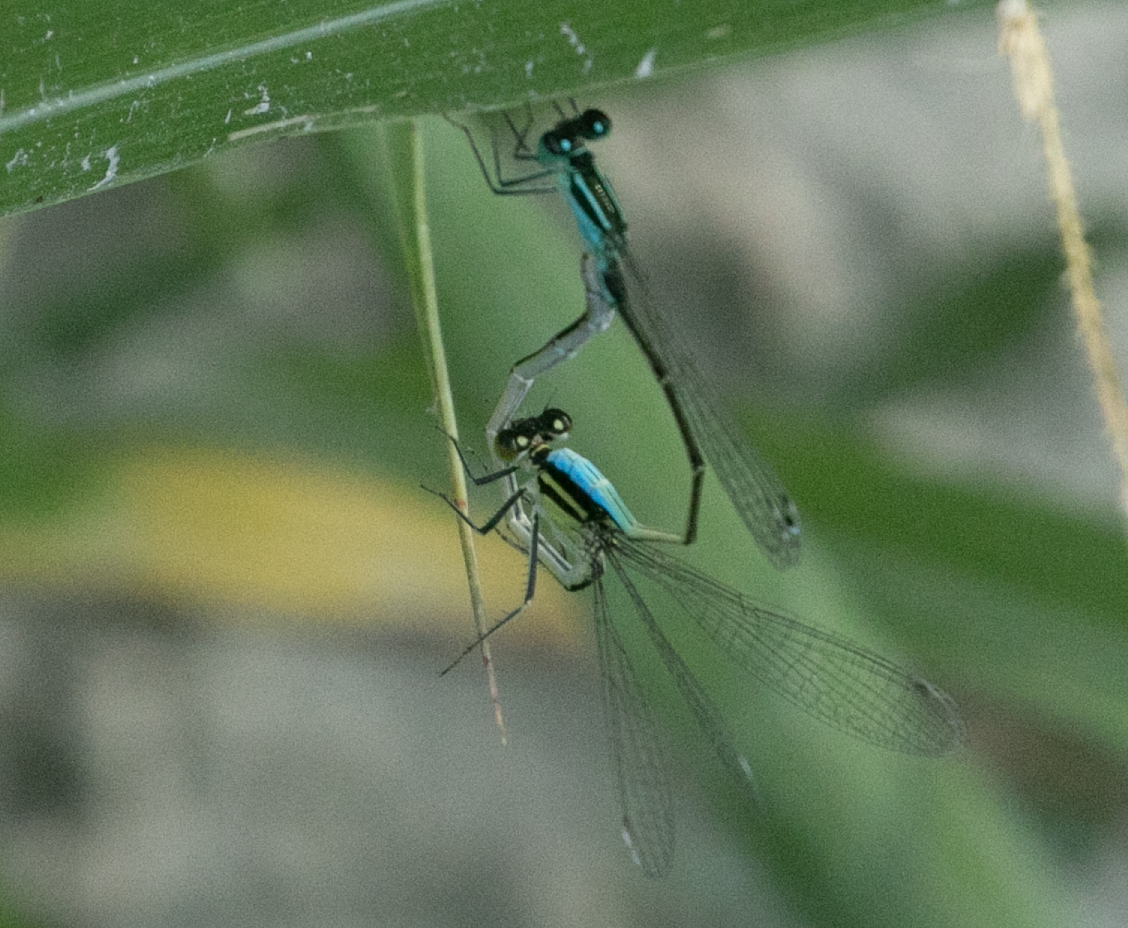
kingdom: Animalia
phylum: Arthropoda
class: Insecta
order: Odonata
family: Coenagrionidae
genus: Ischnura
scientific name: Ischnura elegans
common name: Blue-tailed damselfly
